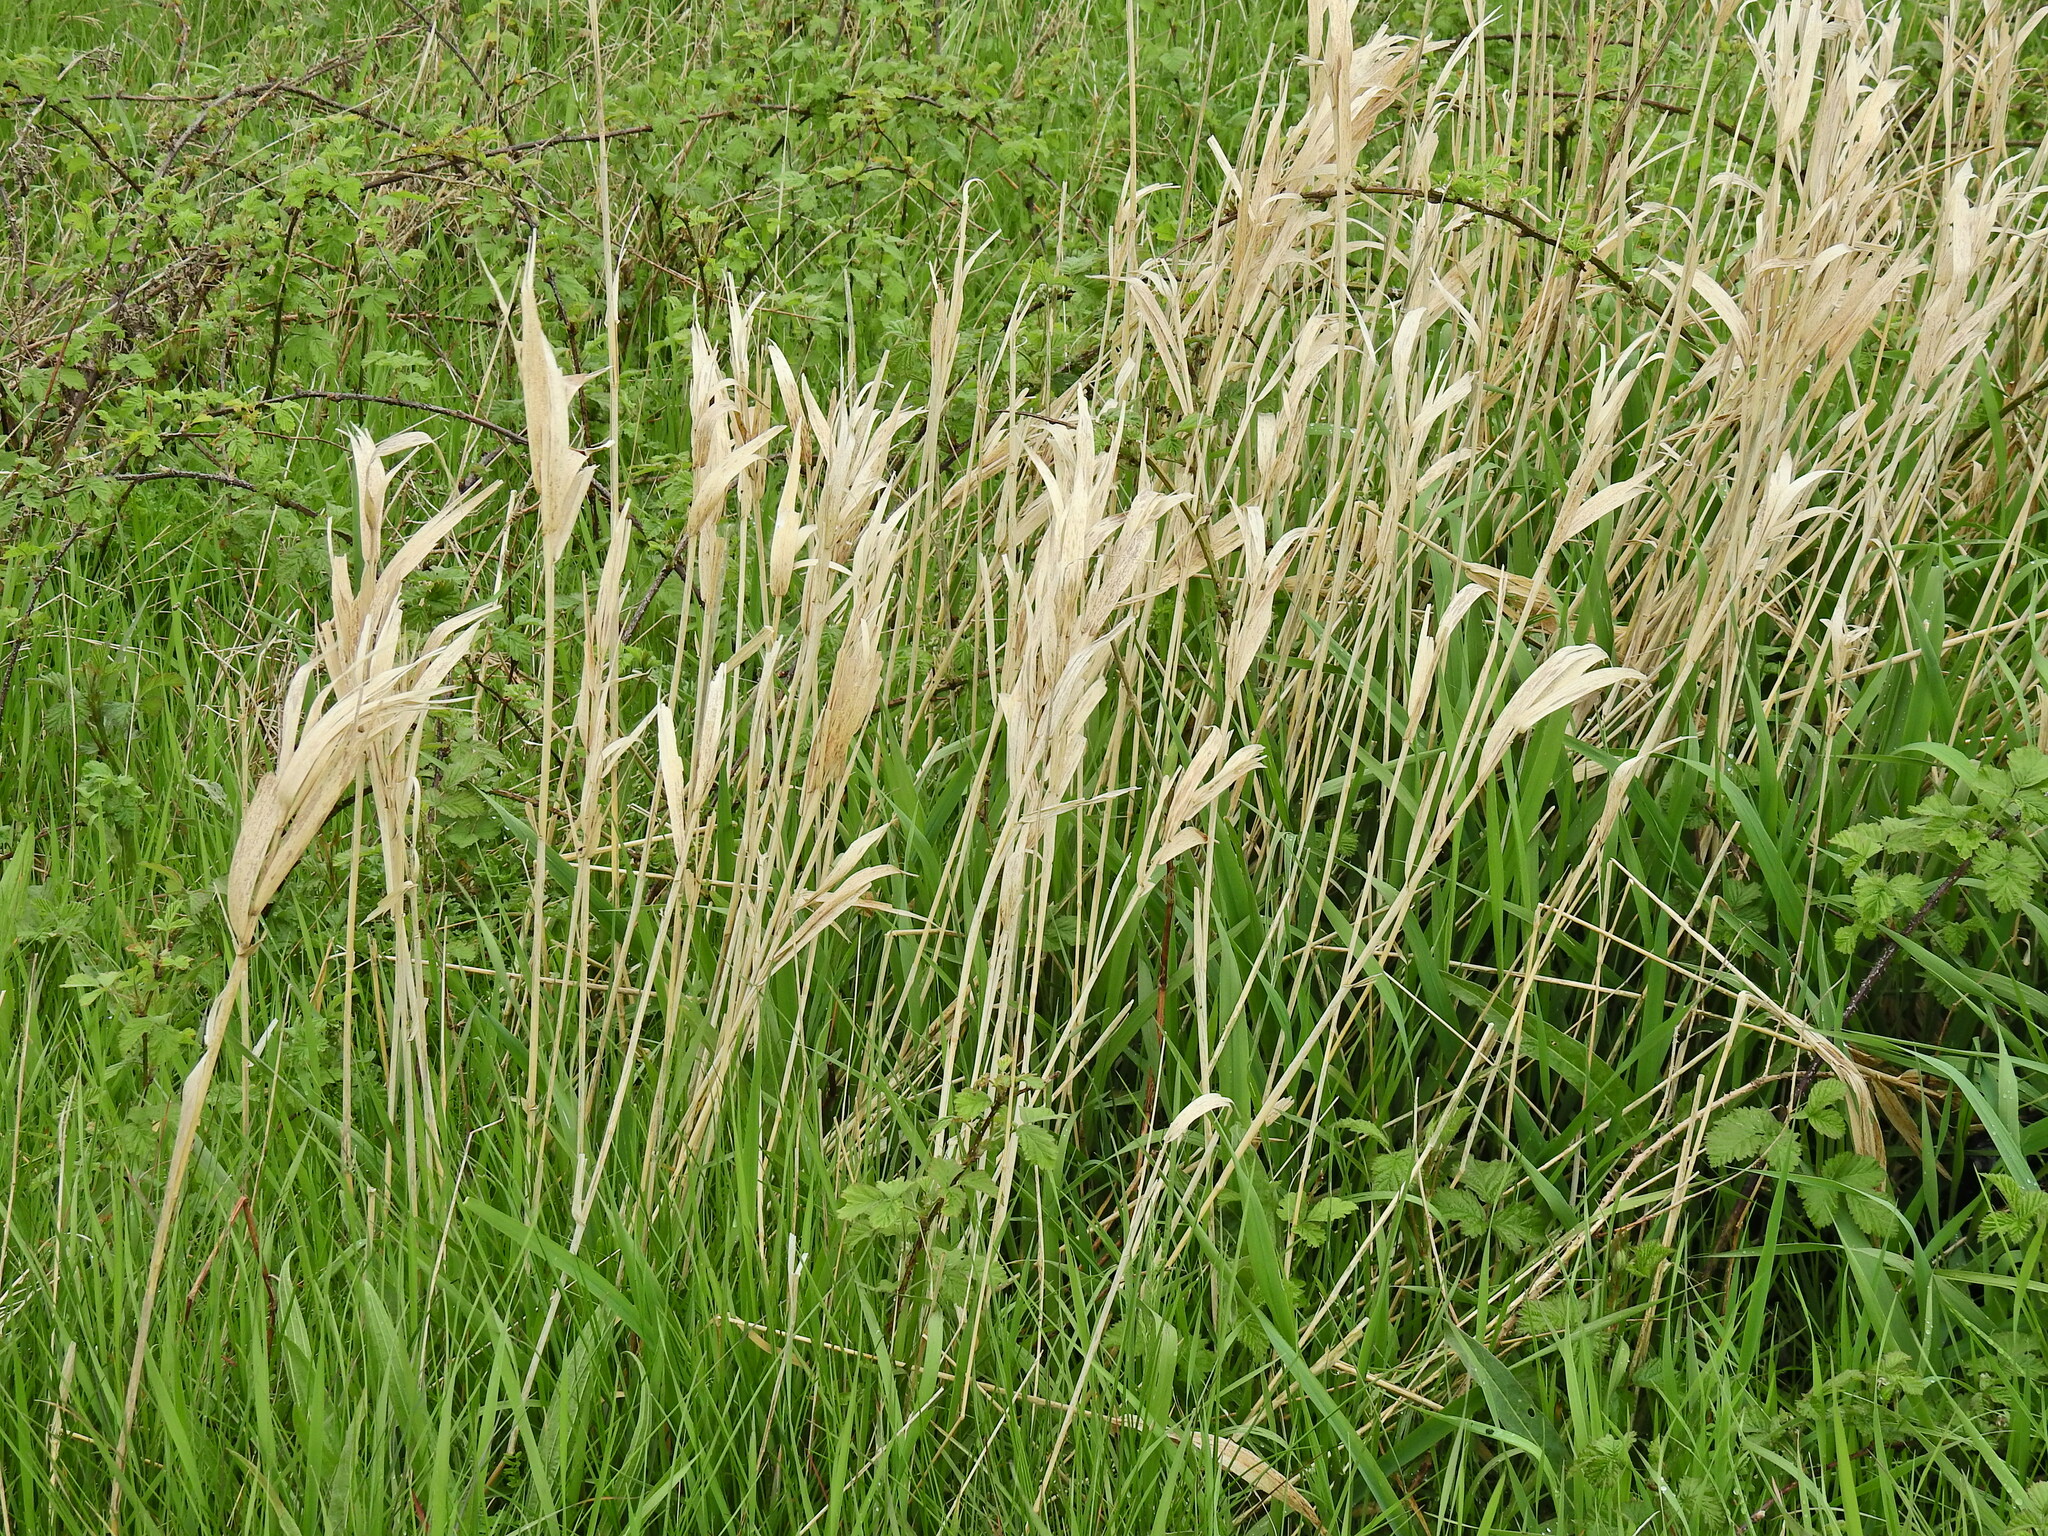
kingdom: Plantae
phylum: Tracheophyta
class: Liliopsida
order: Poales
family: Poaceae
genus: Phalaris
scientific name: Phalaris arundinacea
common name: Reed canary-grass
